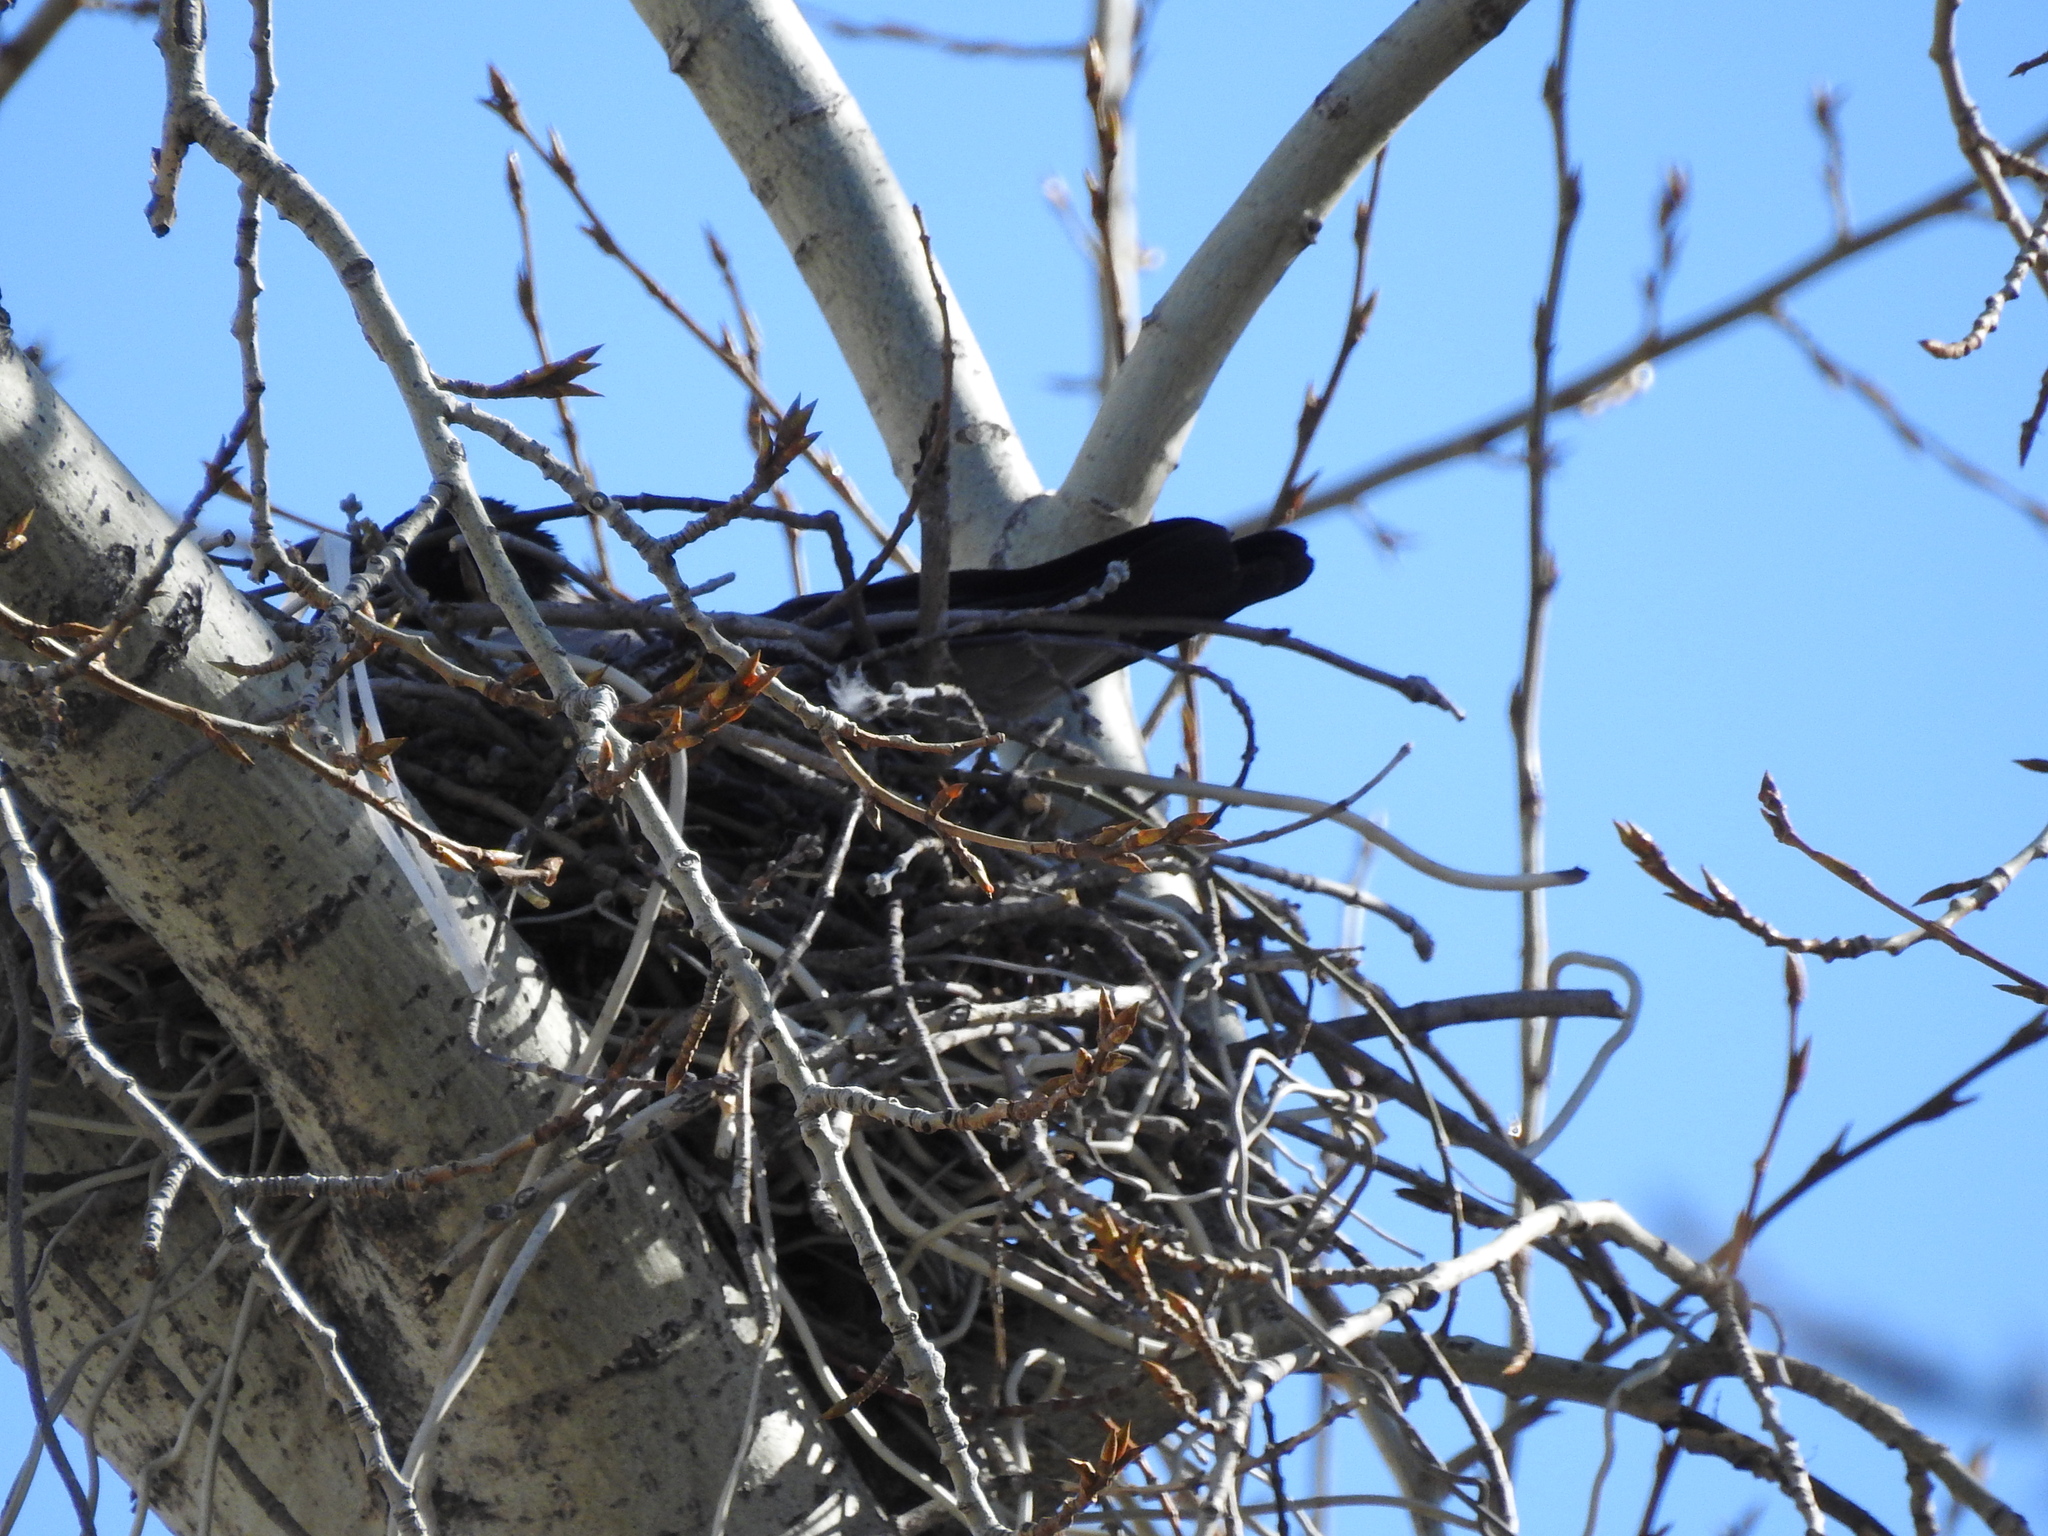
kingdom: Animalia
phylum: Chordata
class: Aves
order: Passeriformes
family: Corvidae
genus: Corvus
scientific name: Corvus cornix
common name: Hooded crow
